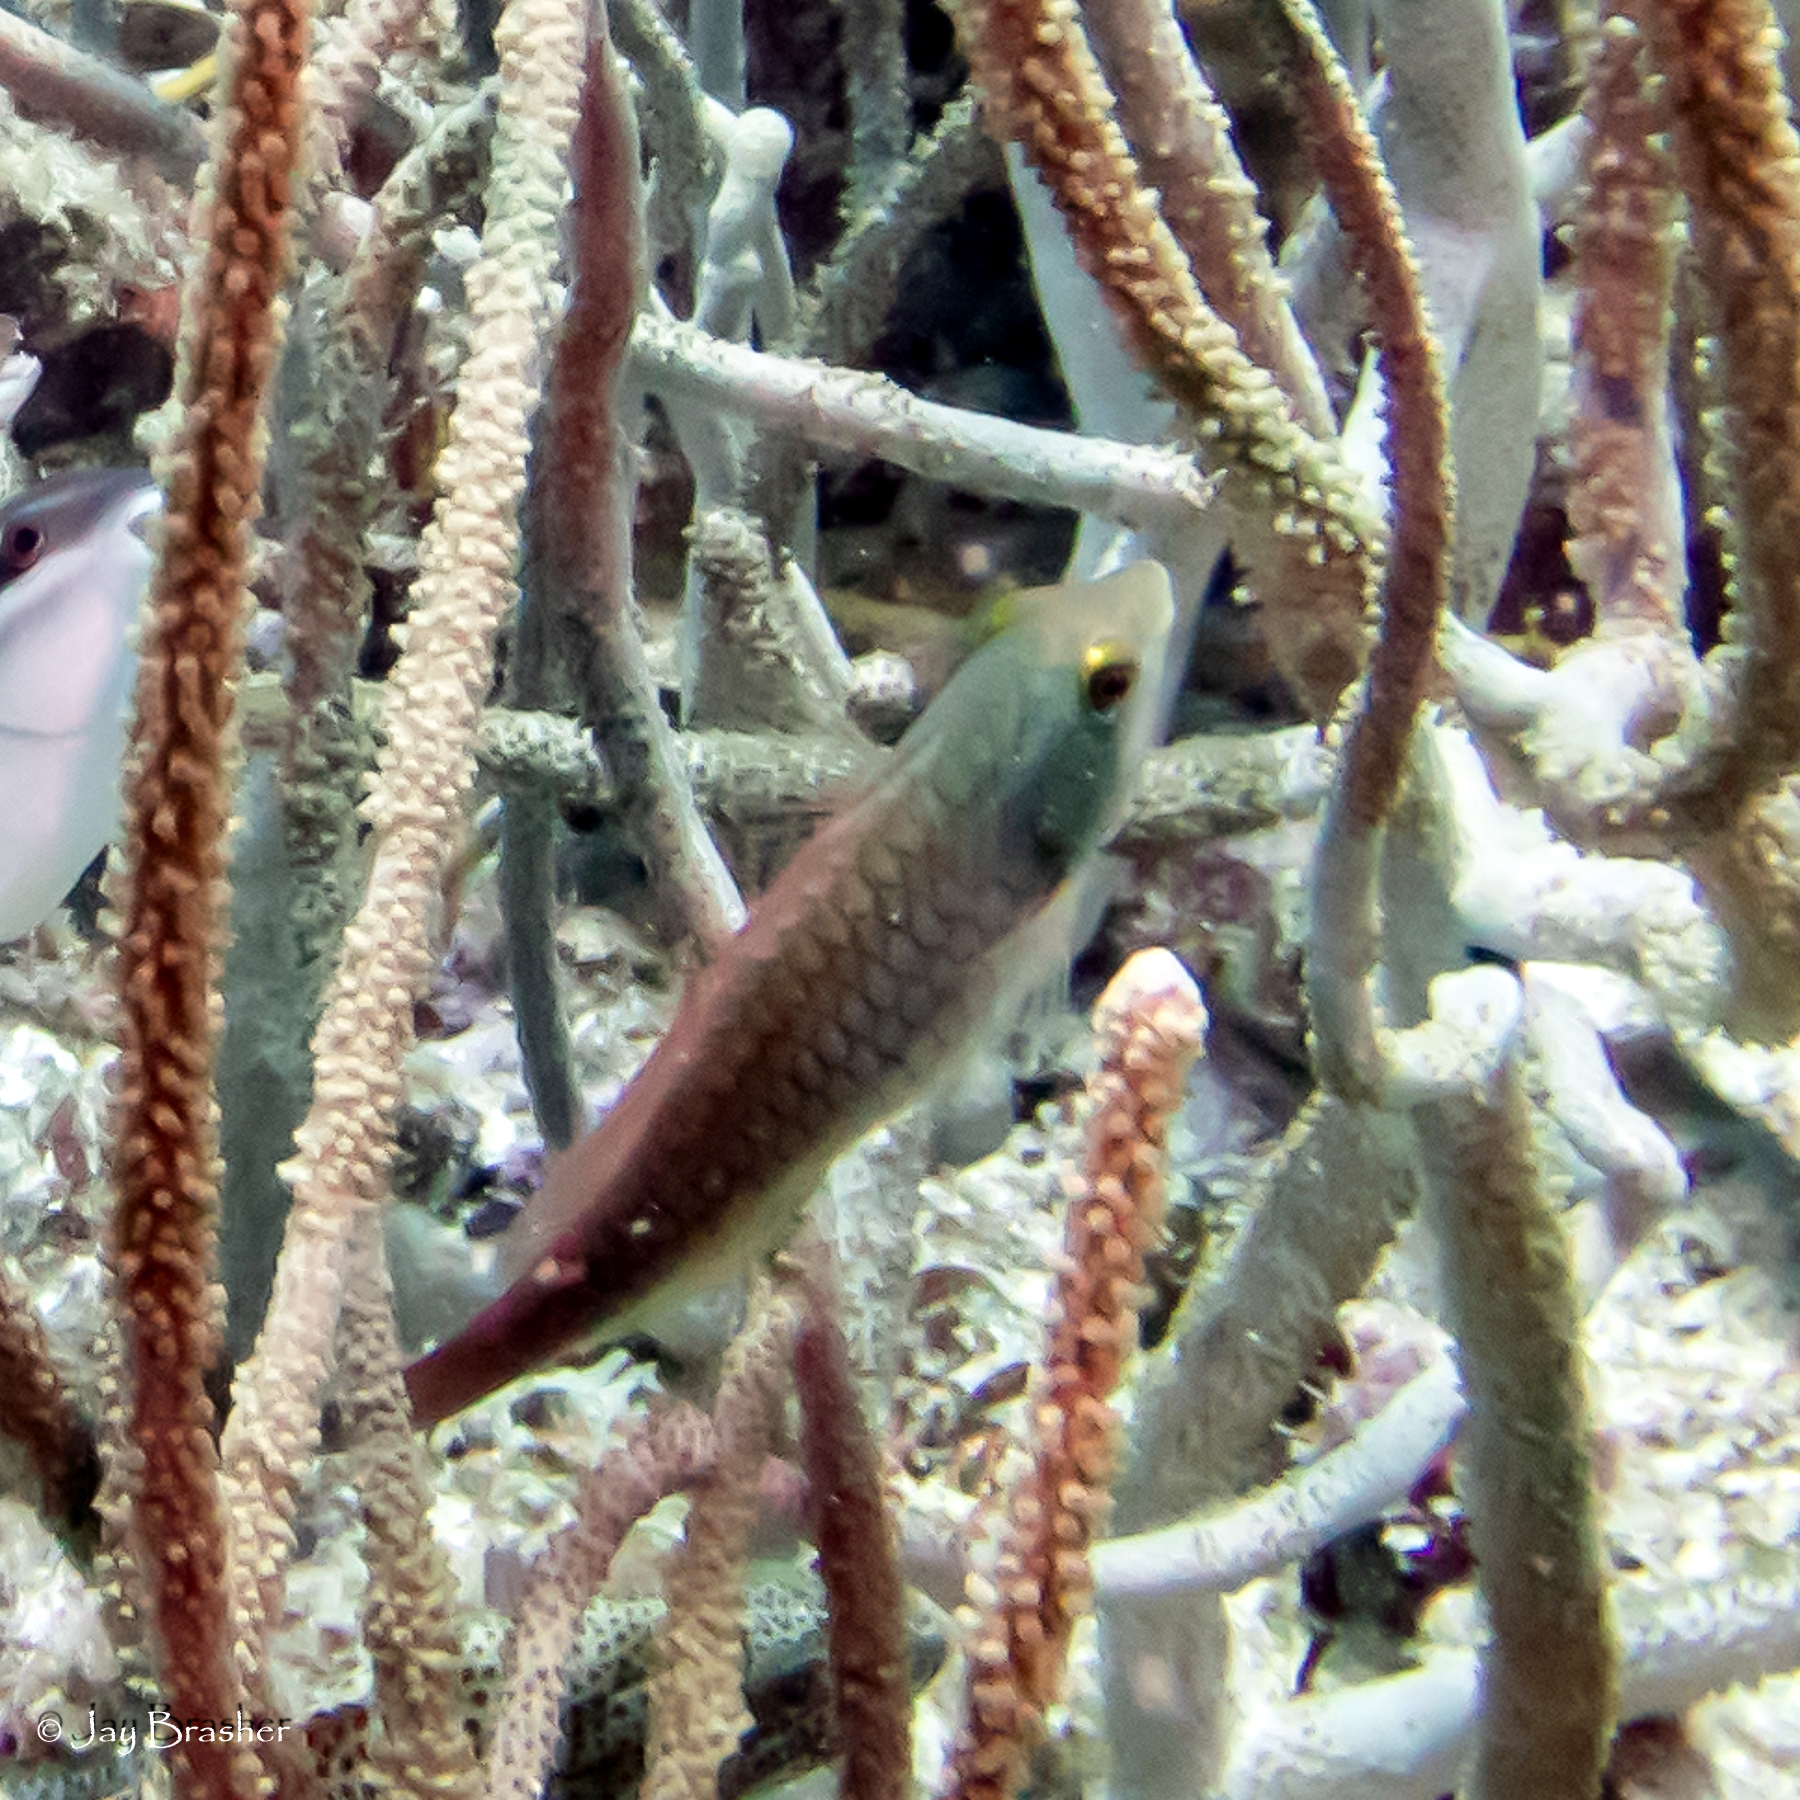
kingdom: Animalia
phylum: Chordata
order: Perciformes
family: Scaridae
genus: Sparisoma
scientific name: Sparisoma aurofrenatum
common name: Redband parrotfish
